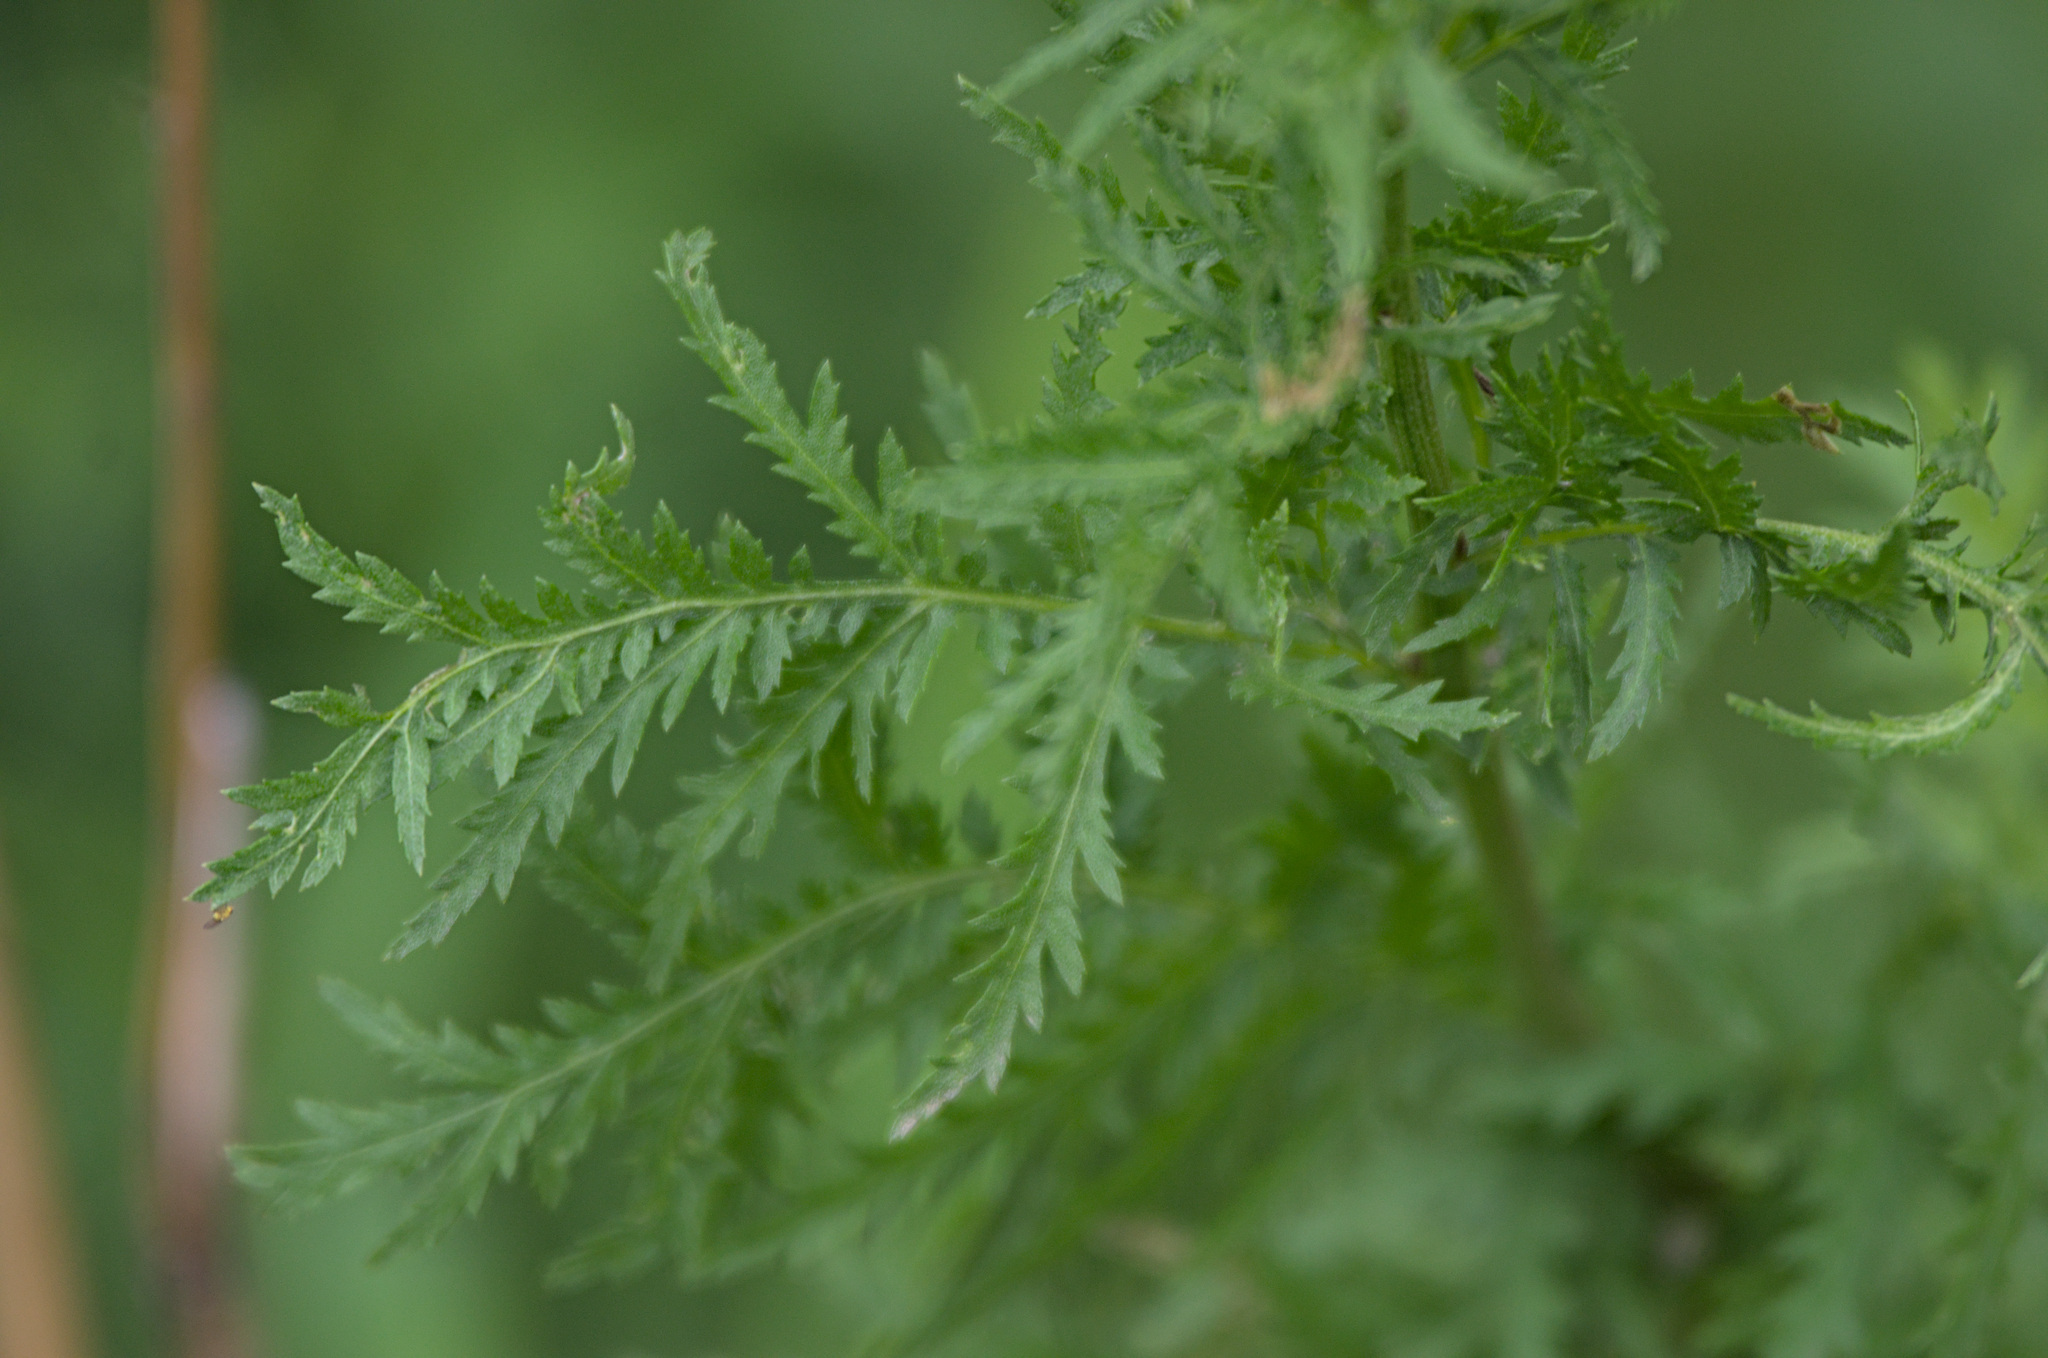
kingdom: Plantae
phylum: Tracheophyta
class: Magnoliopsida
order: Asterales
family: Asteraceae
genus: Tanacetum
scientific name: Tanacetum vulgare
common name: Common tansy
